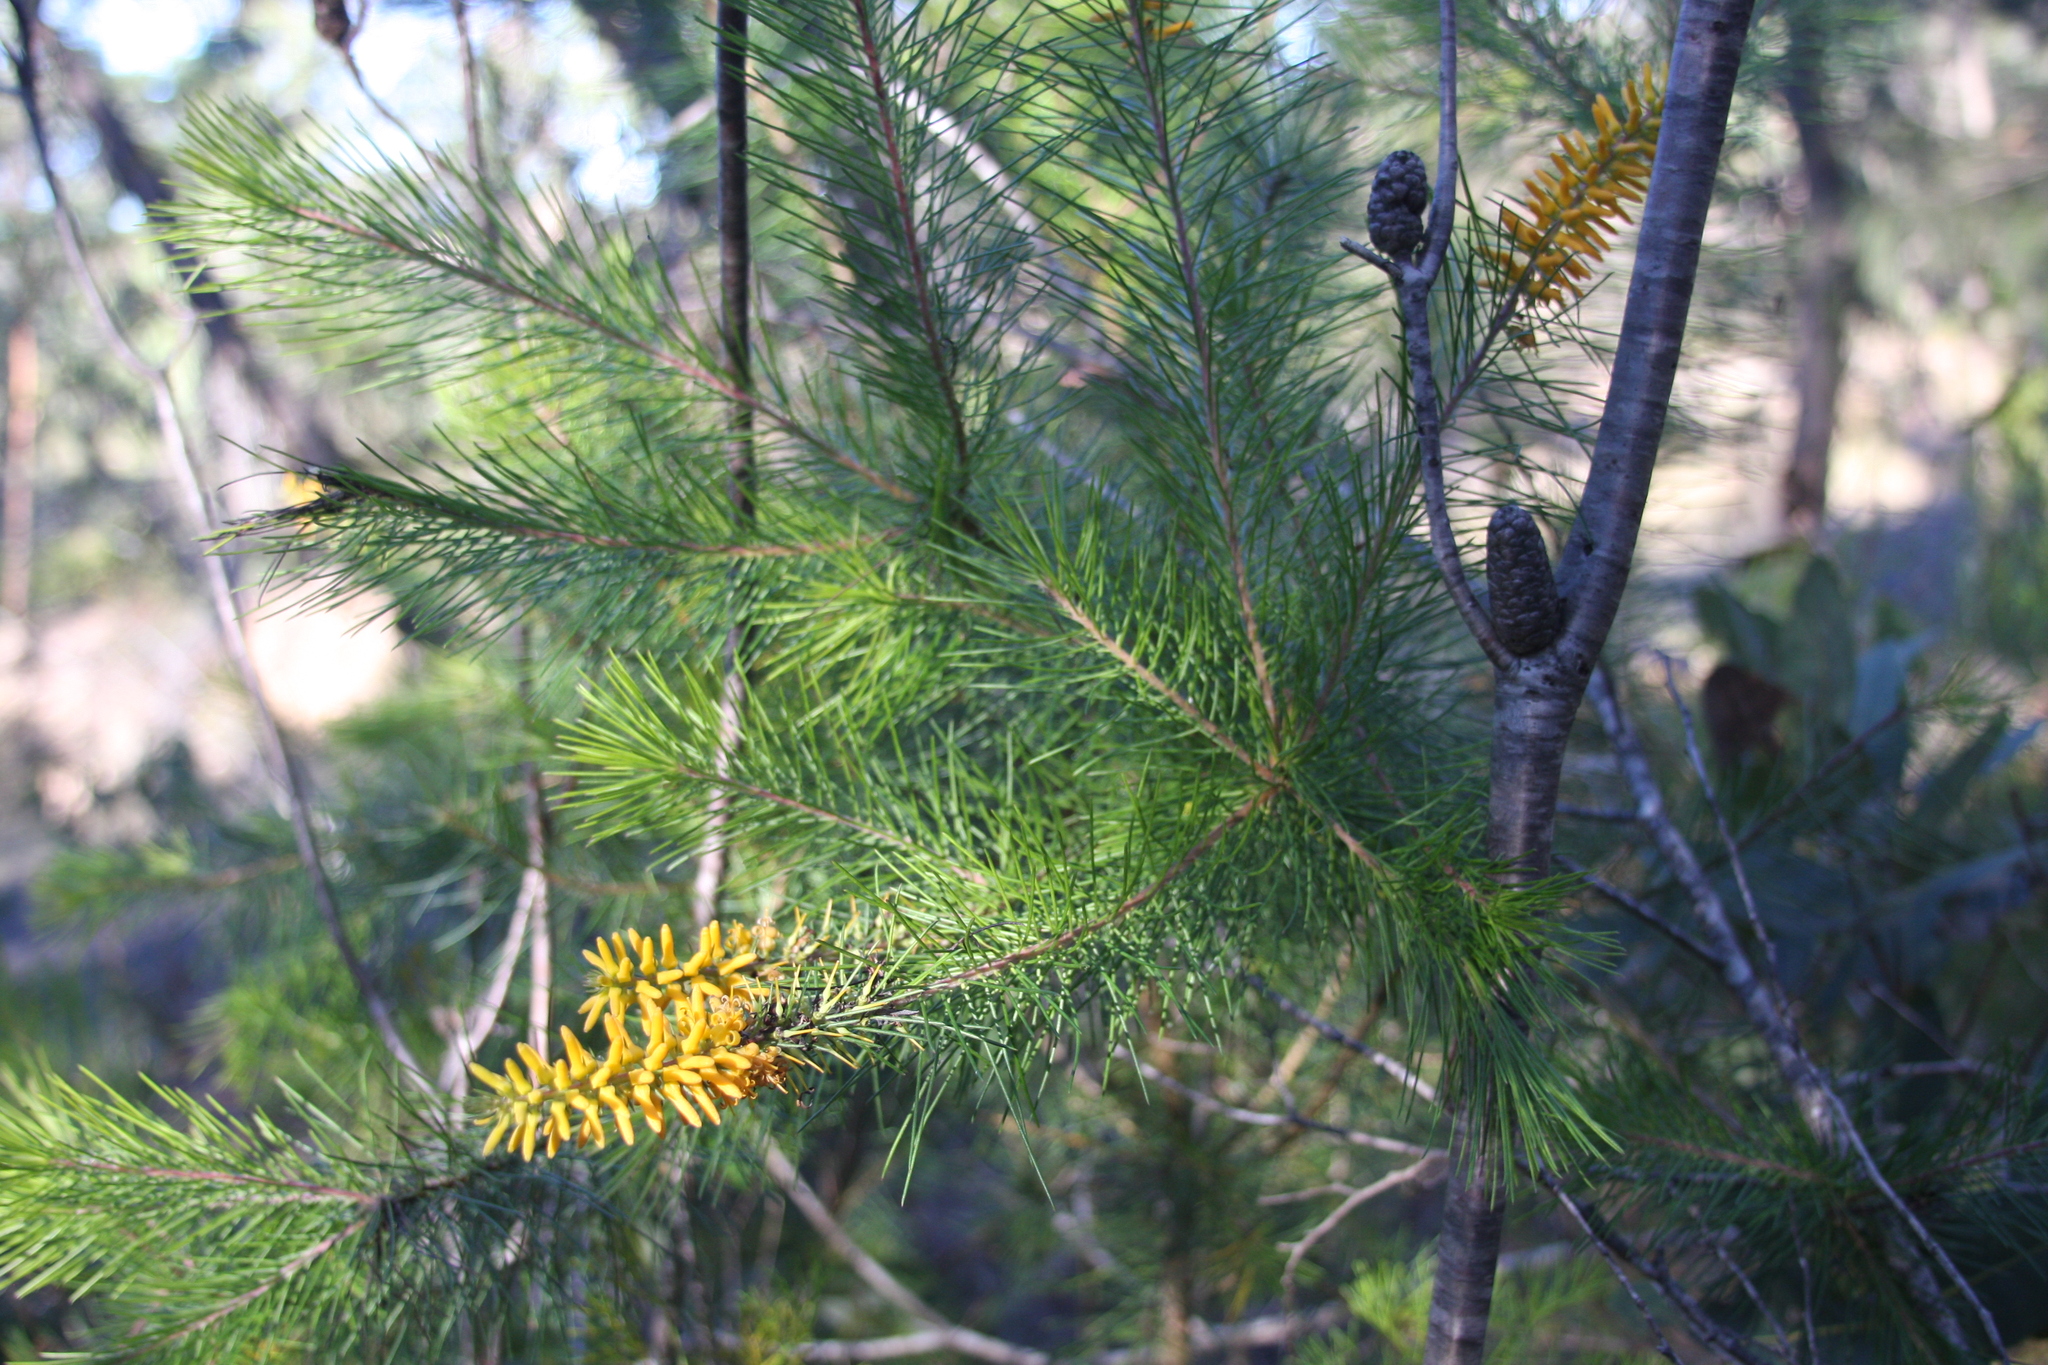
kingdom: Plantae
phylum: Tracheophyta
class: Magnoliopsida
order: Proteales
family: Proteaceae
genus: Persoonia
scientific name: Persoonia pinifolia
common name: Pine-leaf geebung
